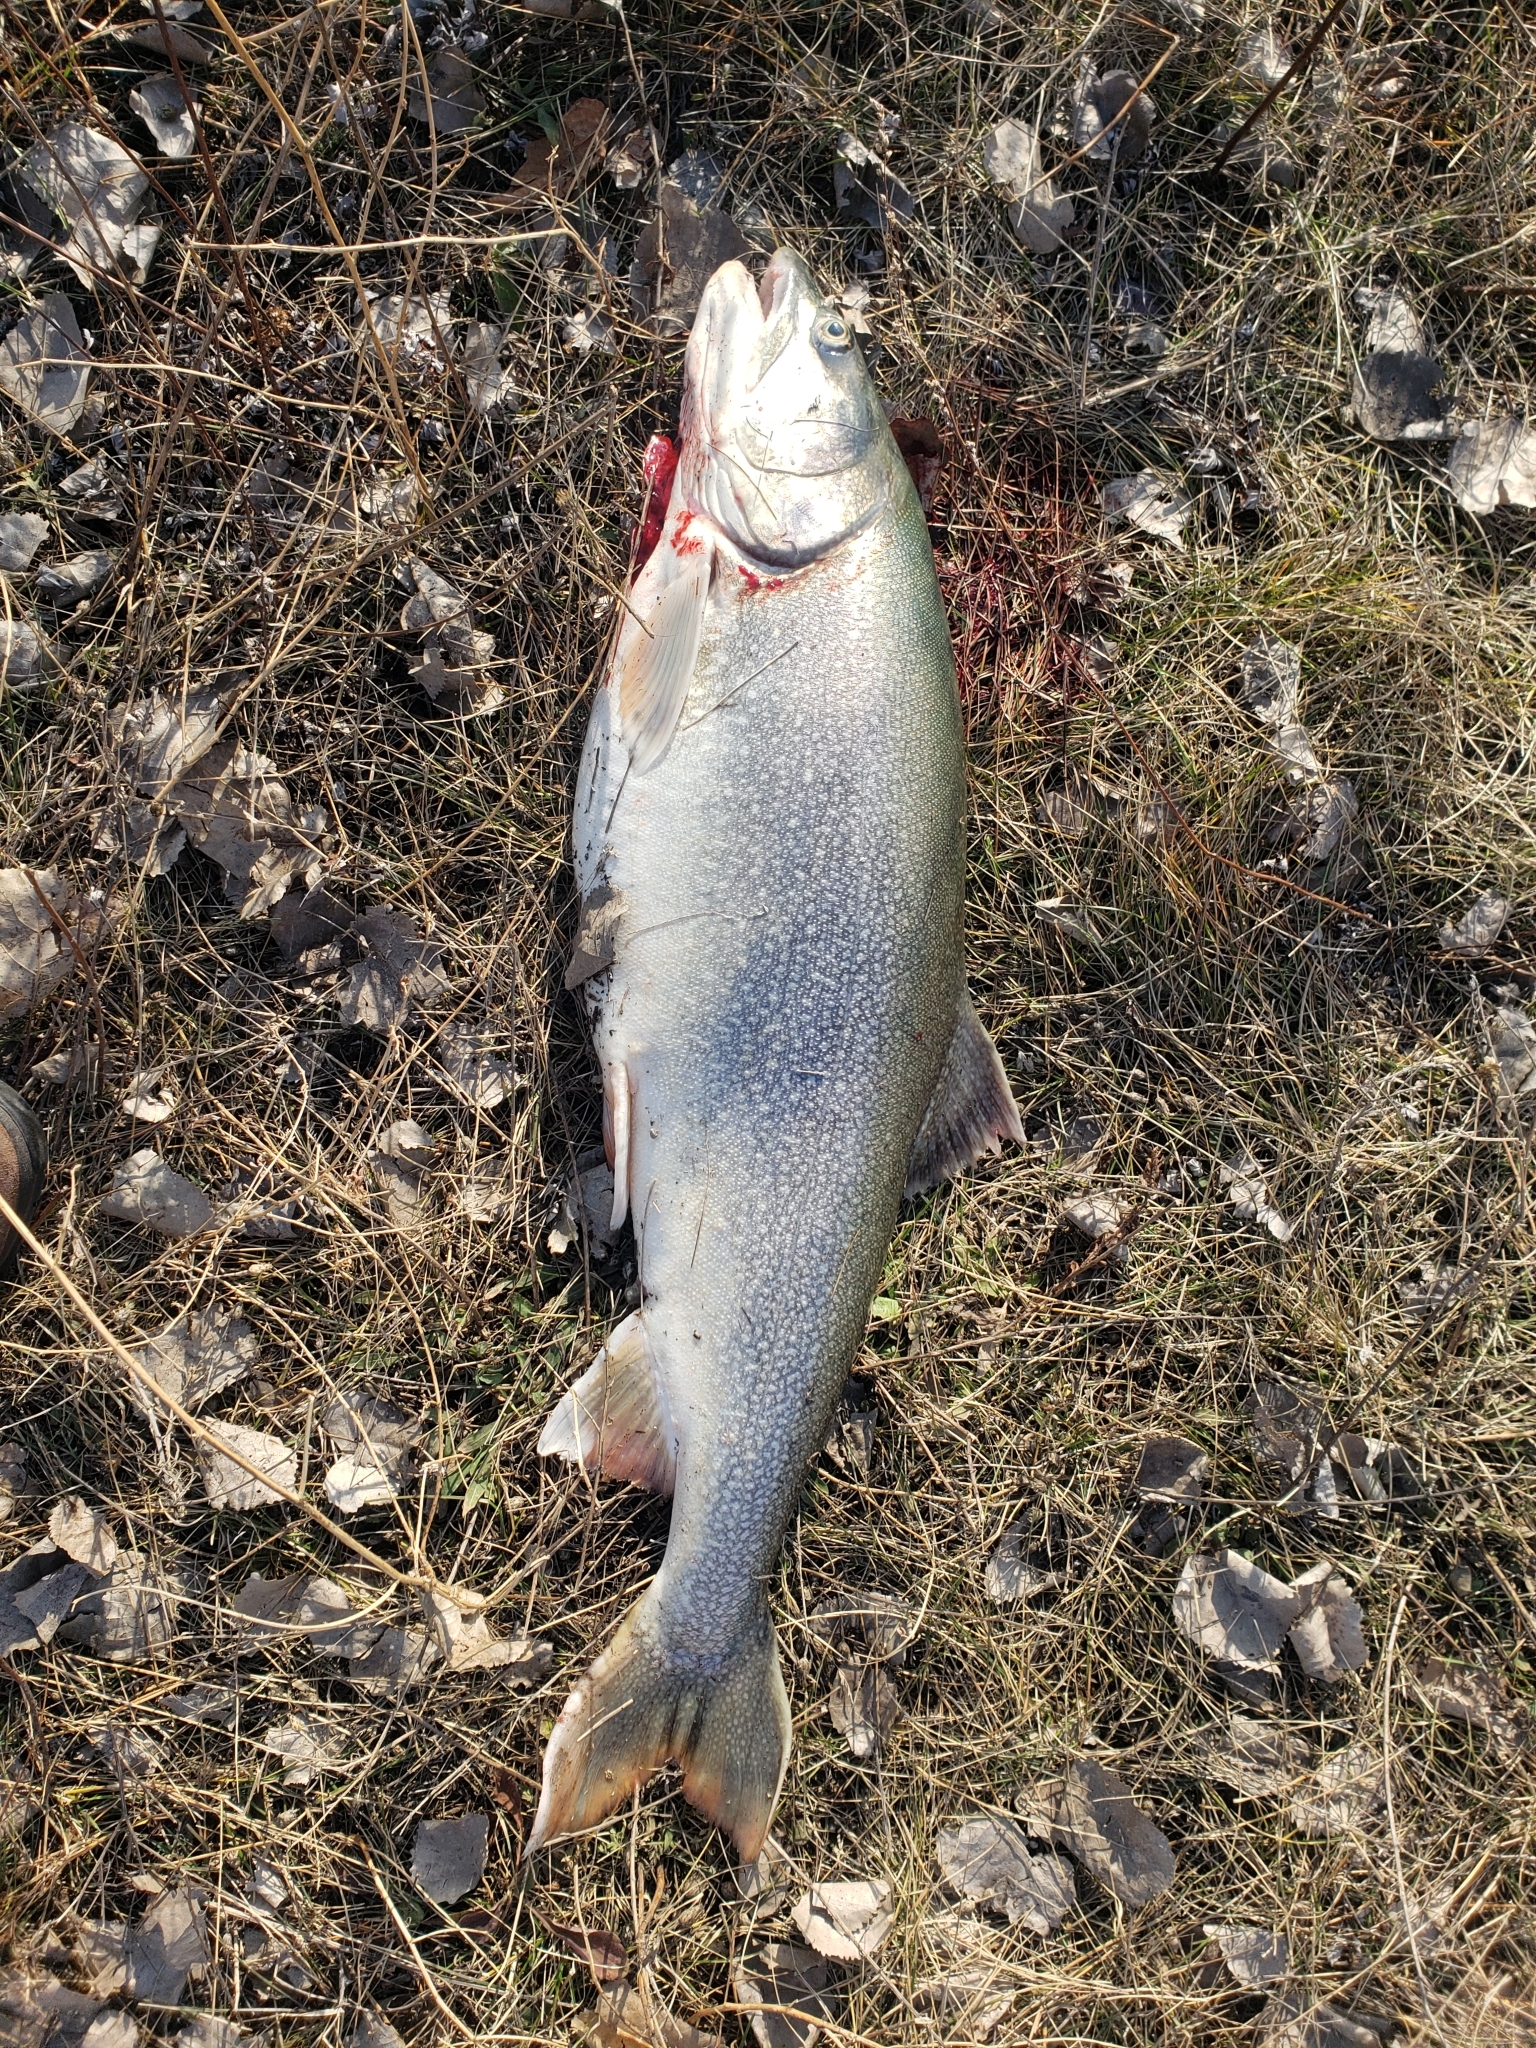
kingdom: Animalia
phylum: Chordata
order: Salmoniformes
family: Salmonidae
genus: Salvelinus
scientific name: Salvelinus namaycush
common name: American lake charr
